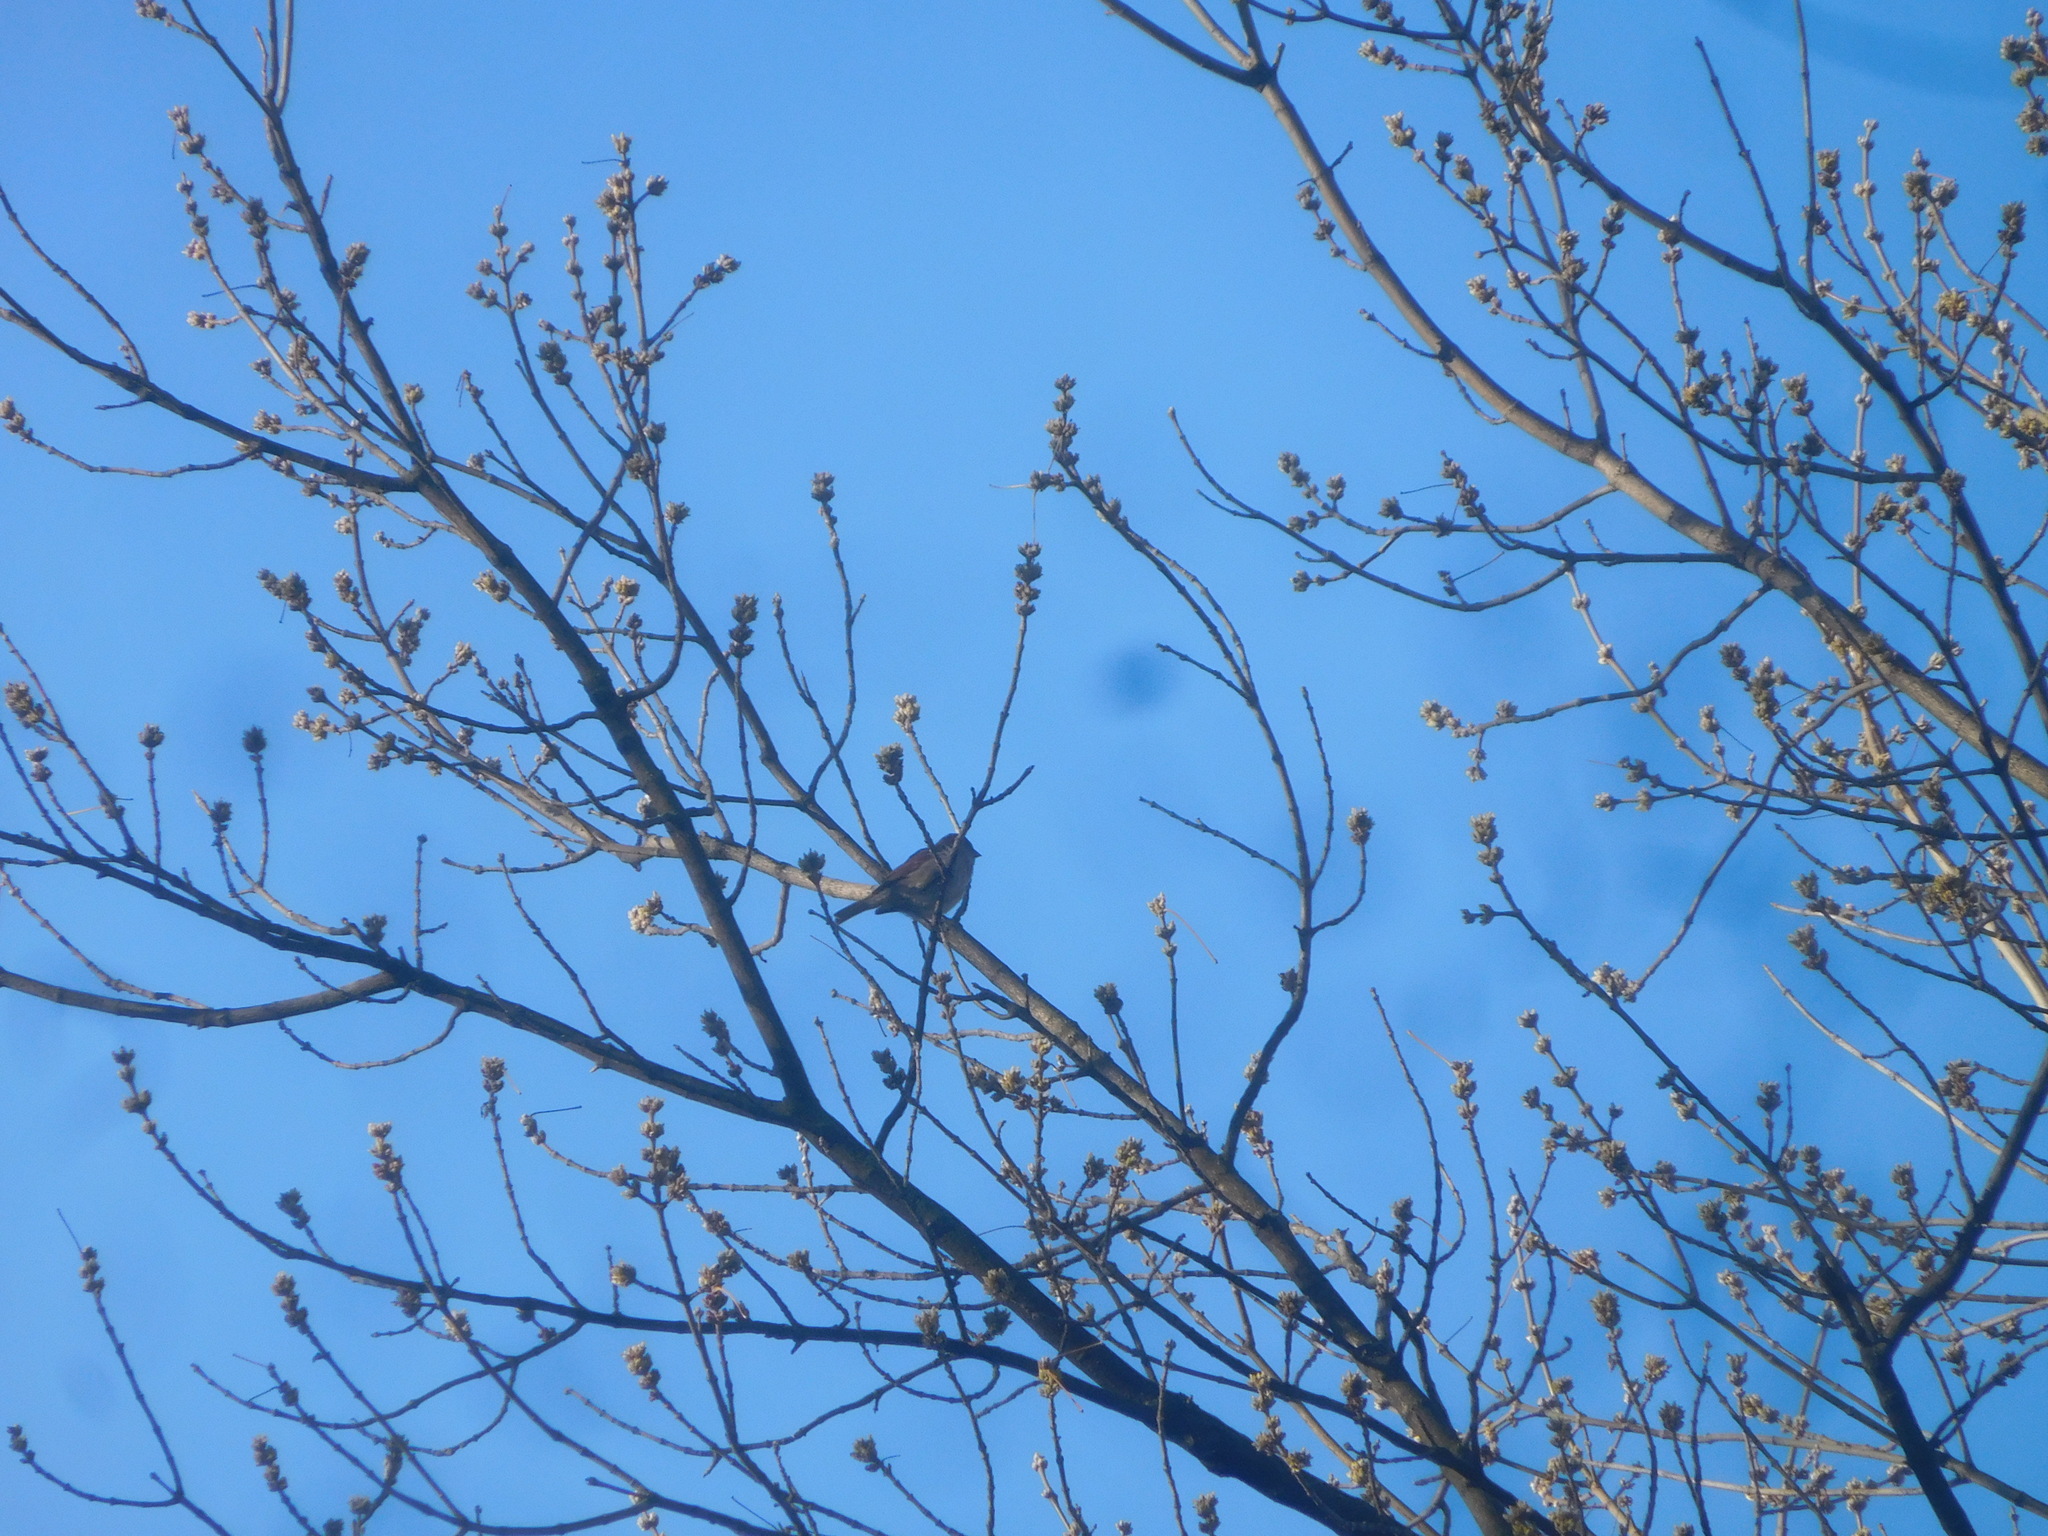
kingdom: Animalia
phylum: Chordata
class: Aves
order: Passeriformes
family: Passeridae
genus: Passer
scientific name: Passer domesticus
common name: House sparrow
